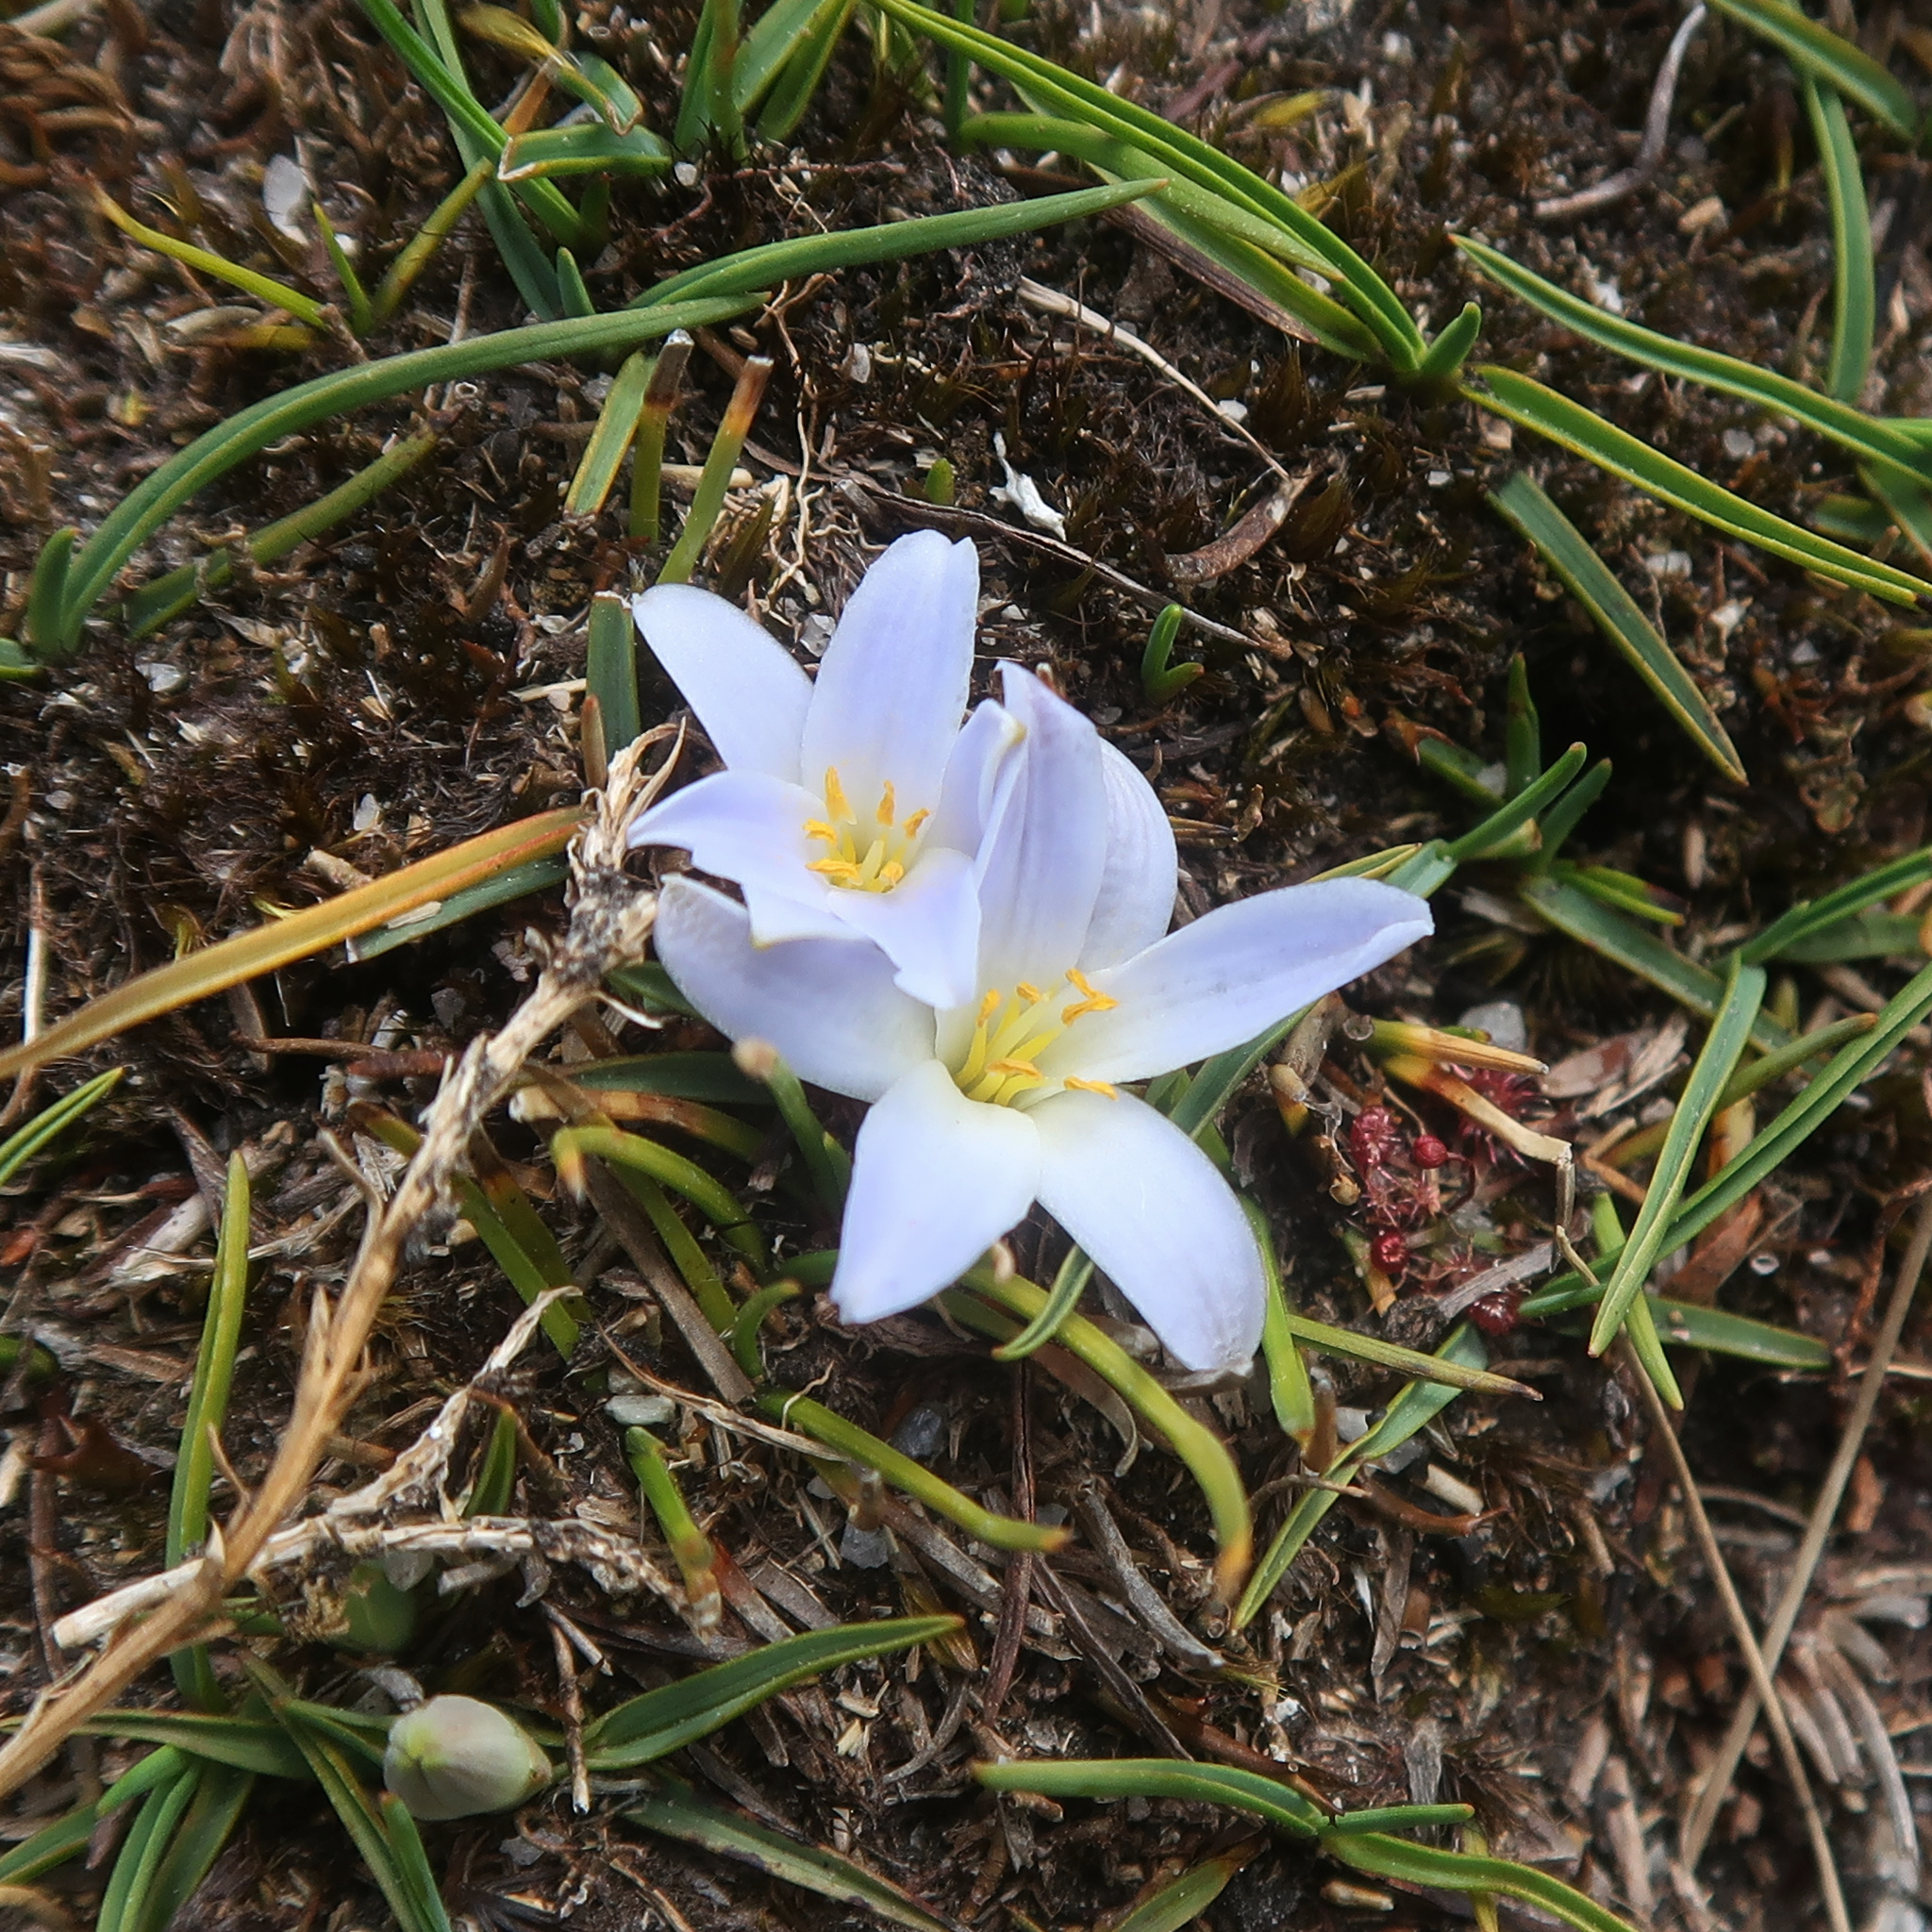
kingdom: Plantae
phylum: Tracheophyta
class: Liliopsida
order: Asparagales
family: Asphodelaceae
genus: Herpolirion
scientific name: Herpolirion novae-zelandiae
